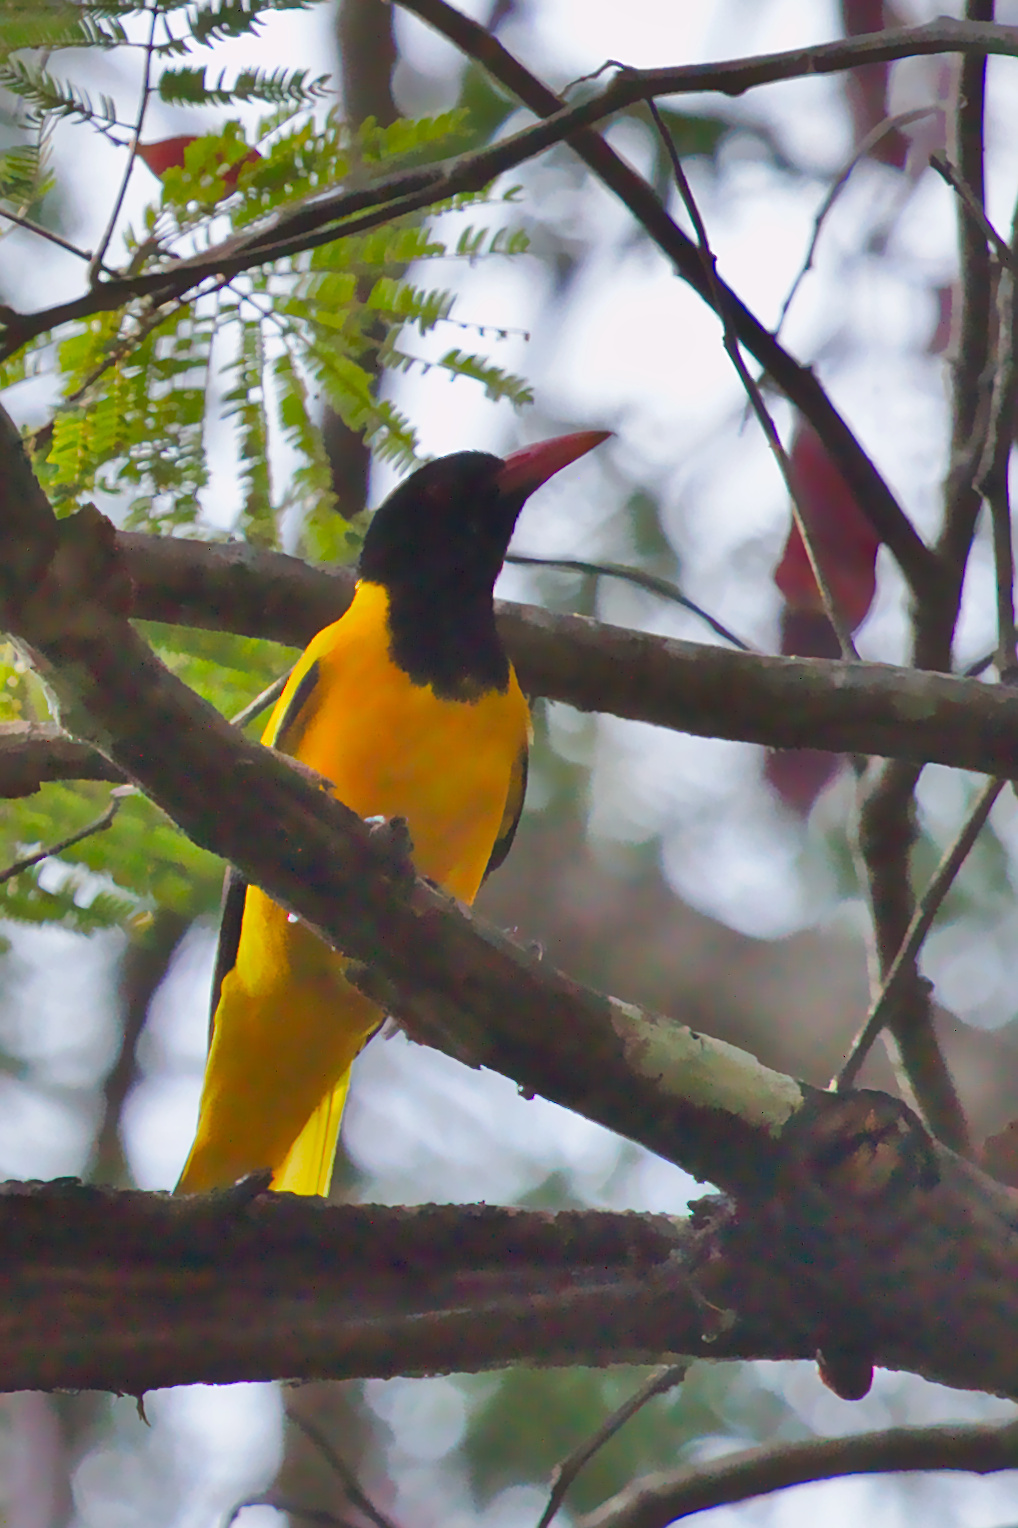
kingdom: Animalia
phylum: Chordata
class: Aves
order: Passeriformes
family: Oriolidae
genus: Oriolus
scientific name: Oriolus xanthornus
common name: Black-hooded oriole
